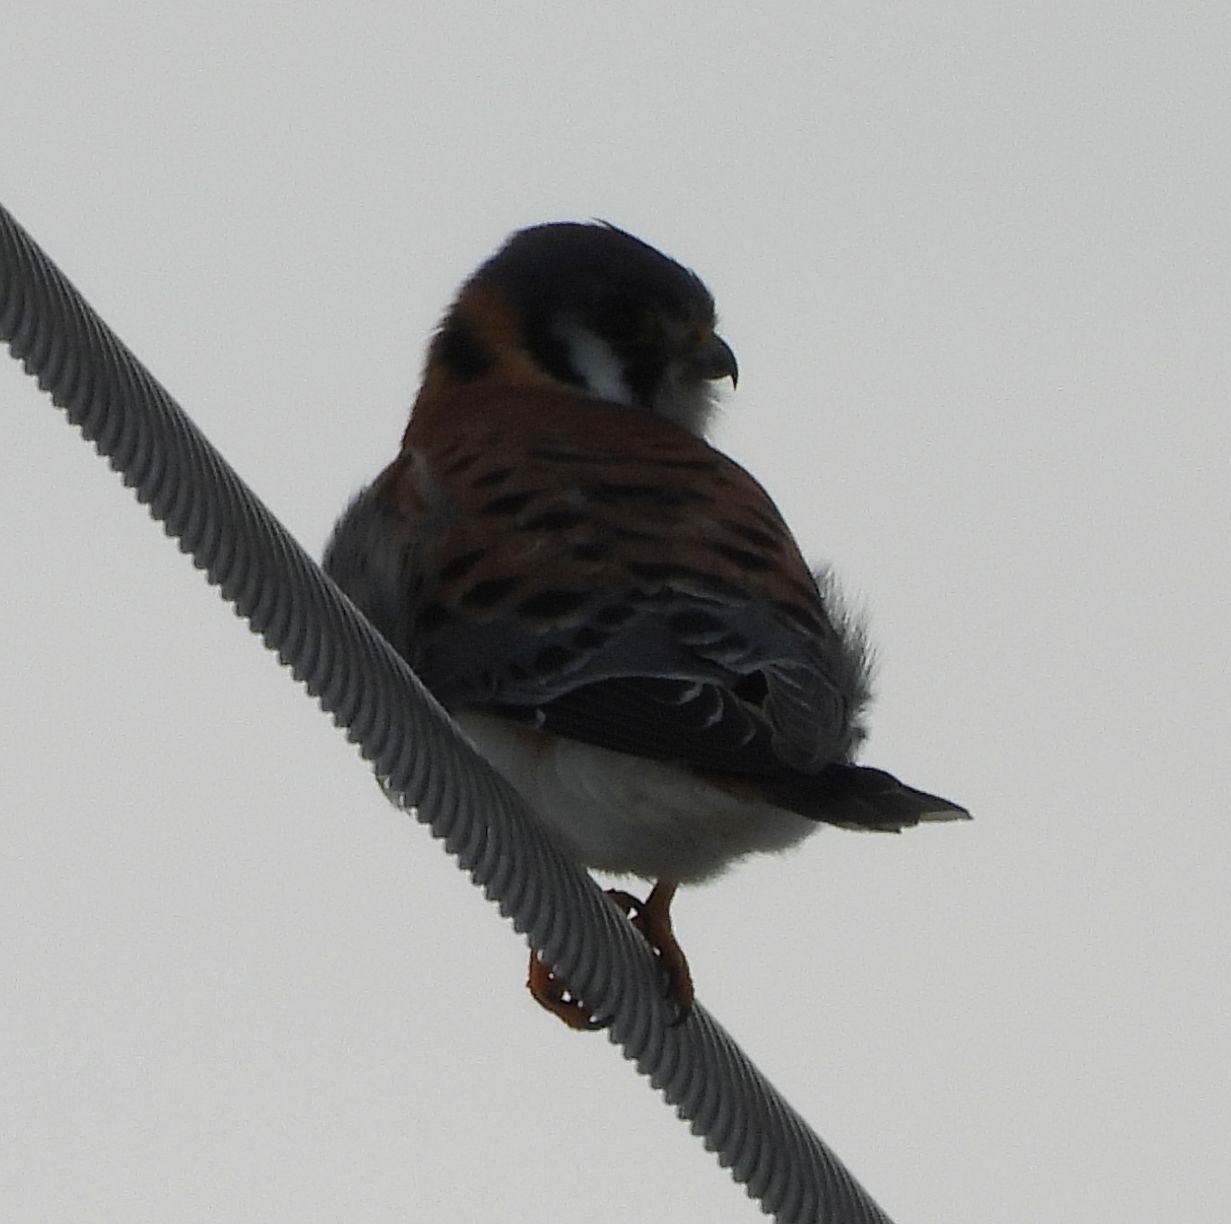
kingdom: Animalia
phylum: Chordata
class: Aves
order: Falconiformes
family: Falconidae
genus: Falco
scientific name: Falco sparverius
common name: American kestrel
